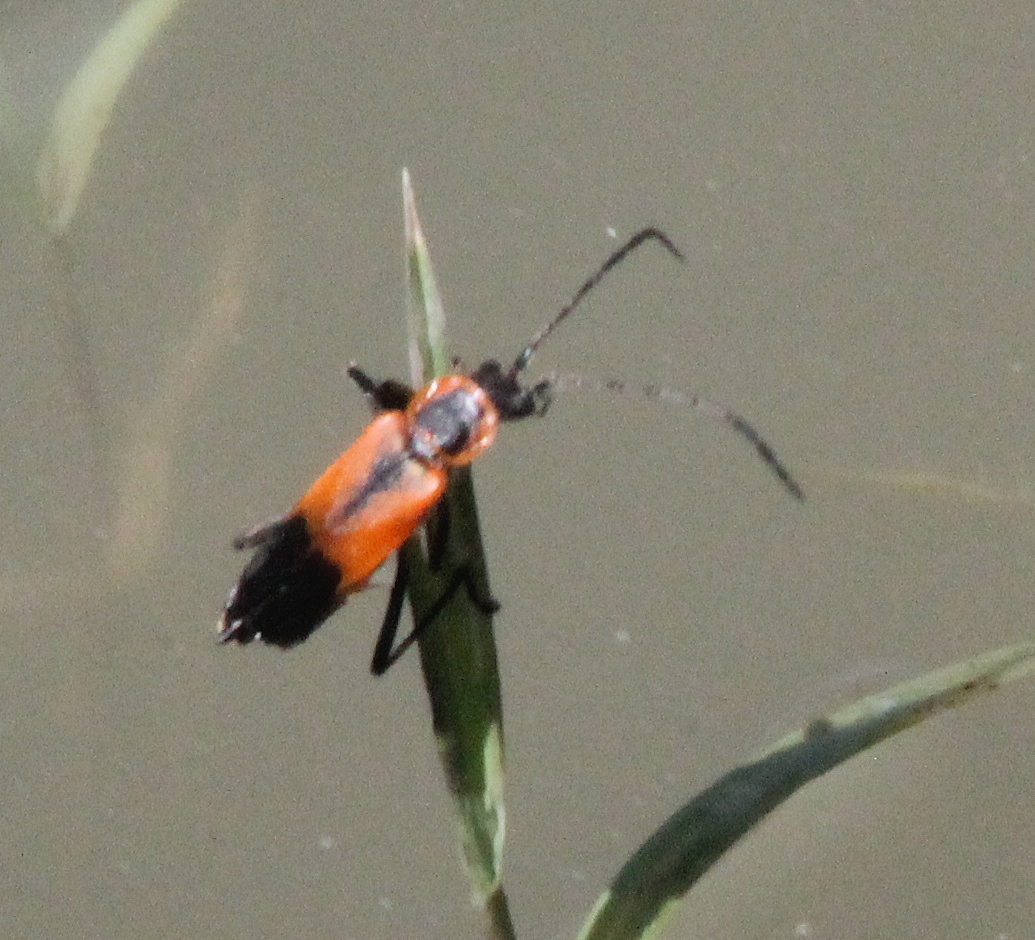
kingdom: Animalia
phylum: Arthropoda
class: Insecta
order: Coleoptera
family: Cantharidae
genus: Chauliognathus
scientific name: Chauliognathus limbicollis
